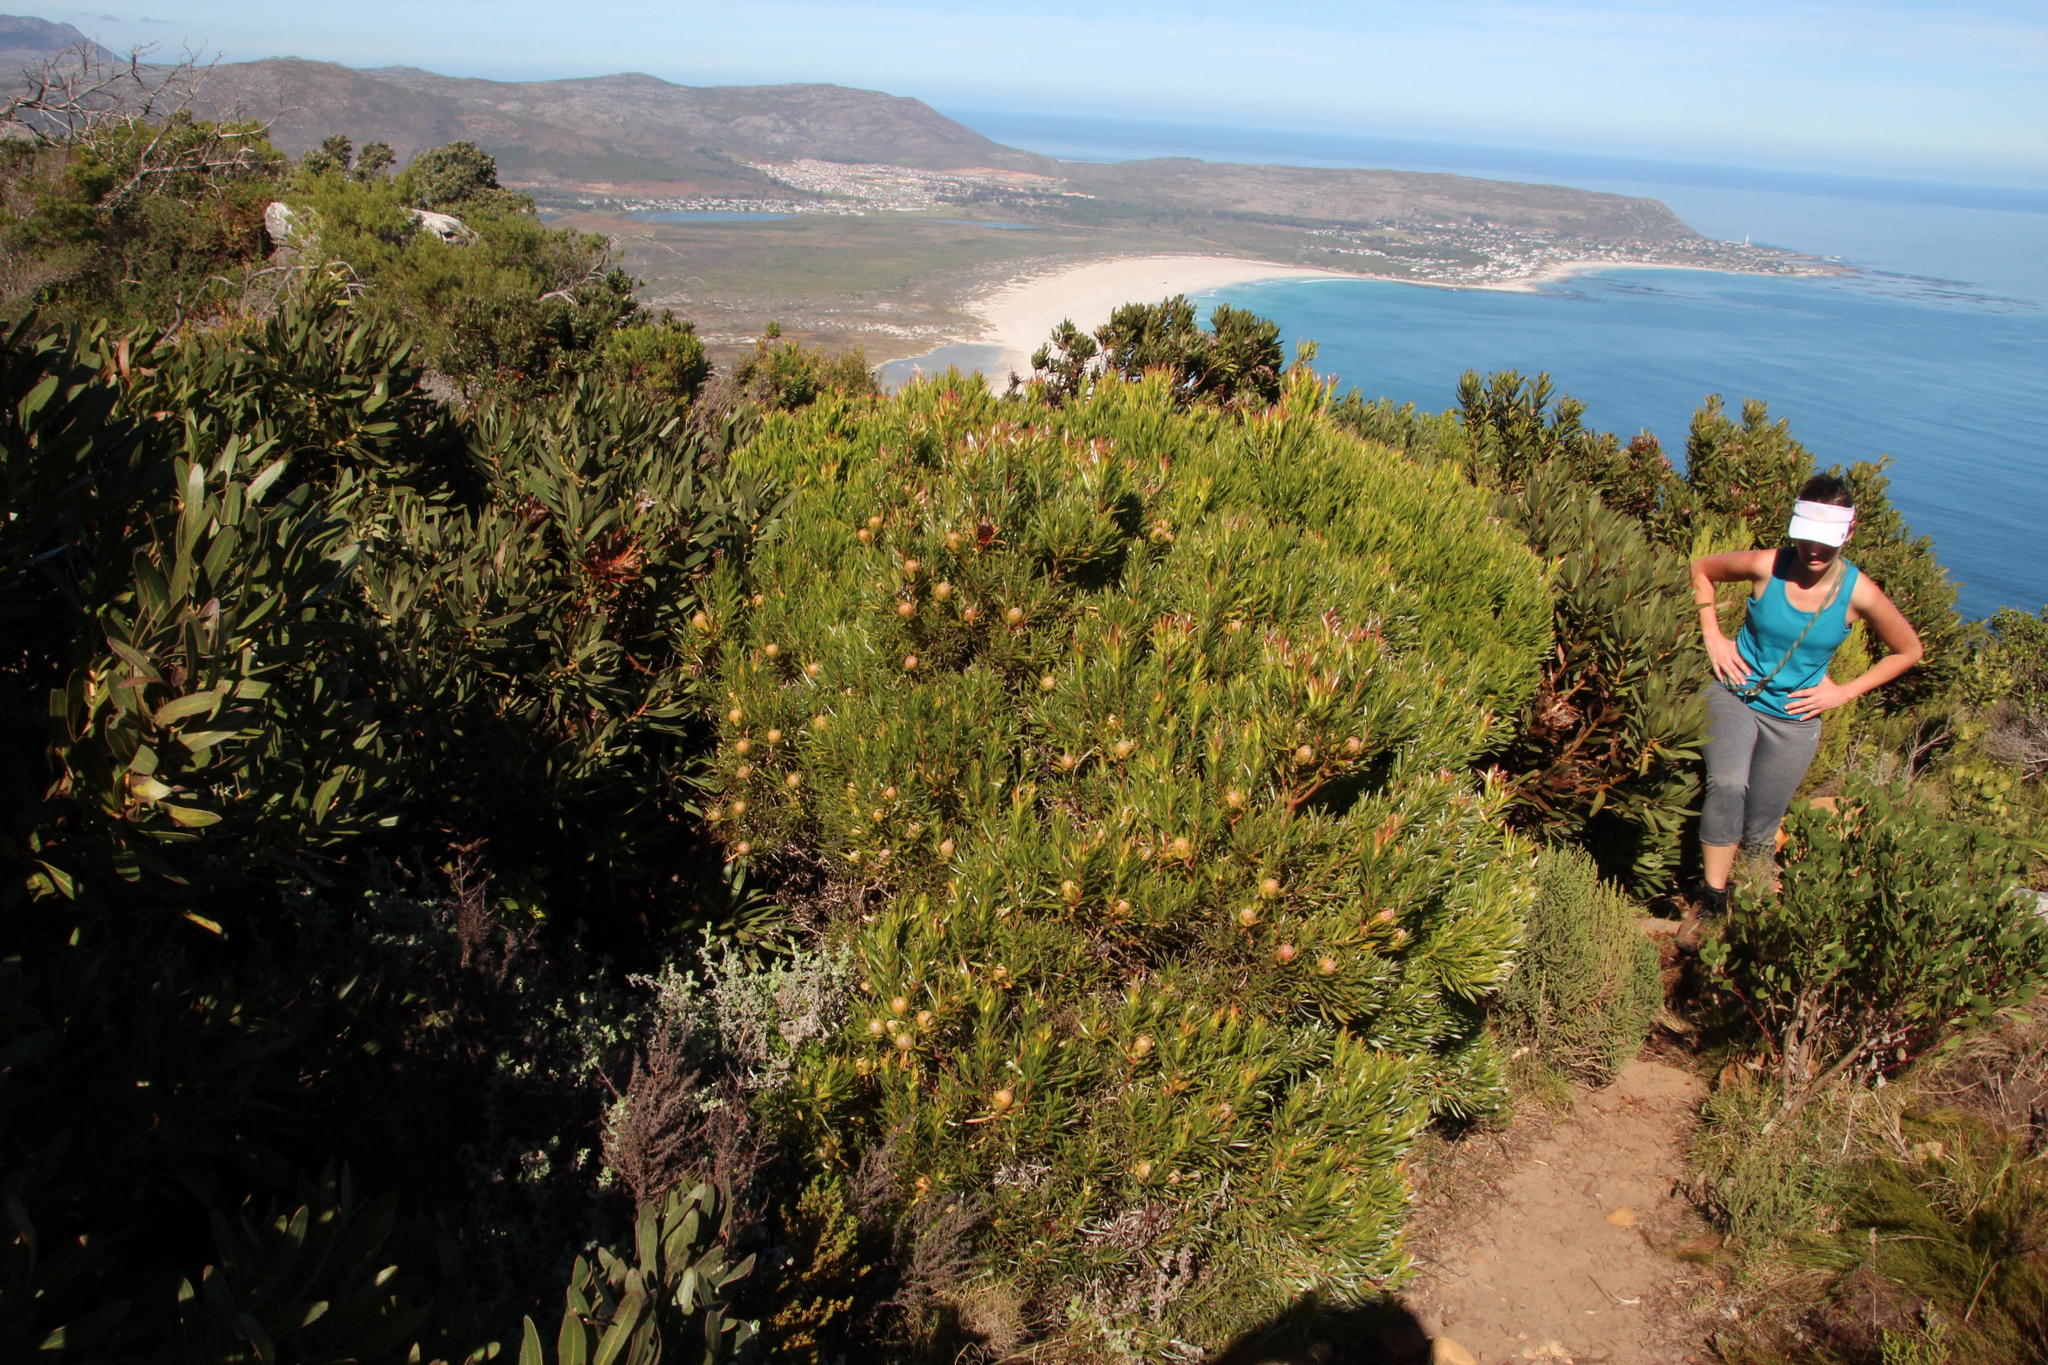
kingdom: Plantae
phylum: Tracheophyta
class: Magnoliopsida
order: Proteales
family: Proteaceae
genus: Leucadendron
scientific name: Leucadendron coniferum
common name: Dune conebush
